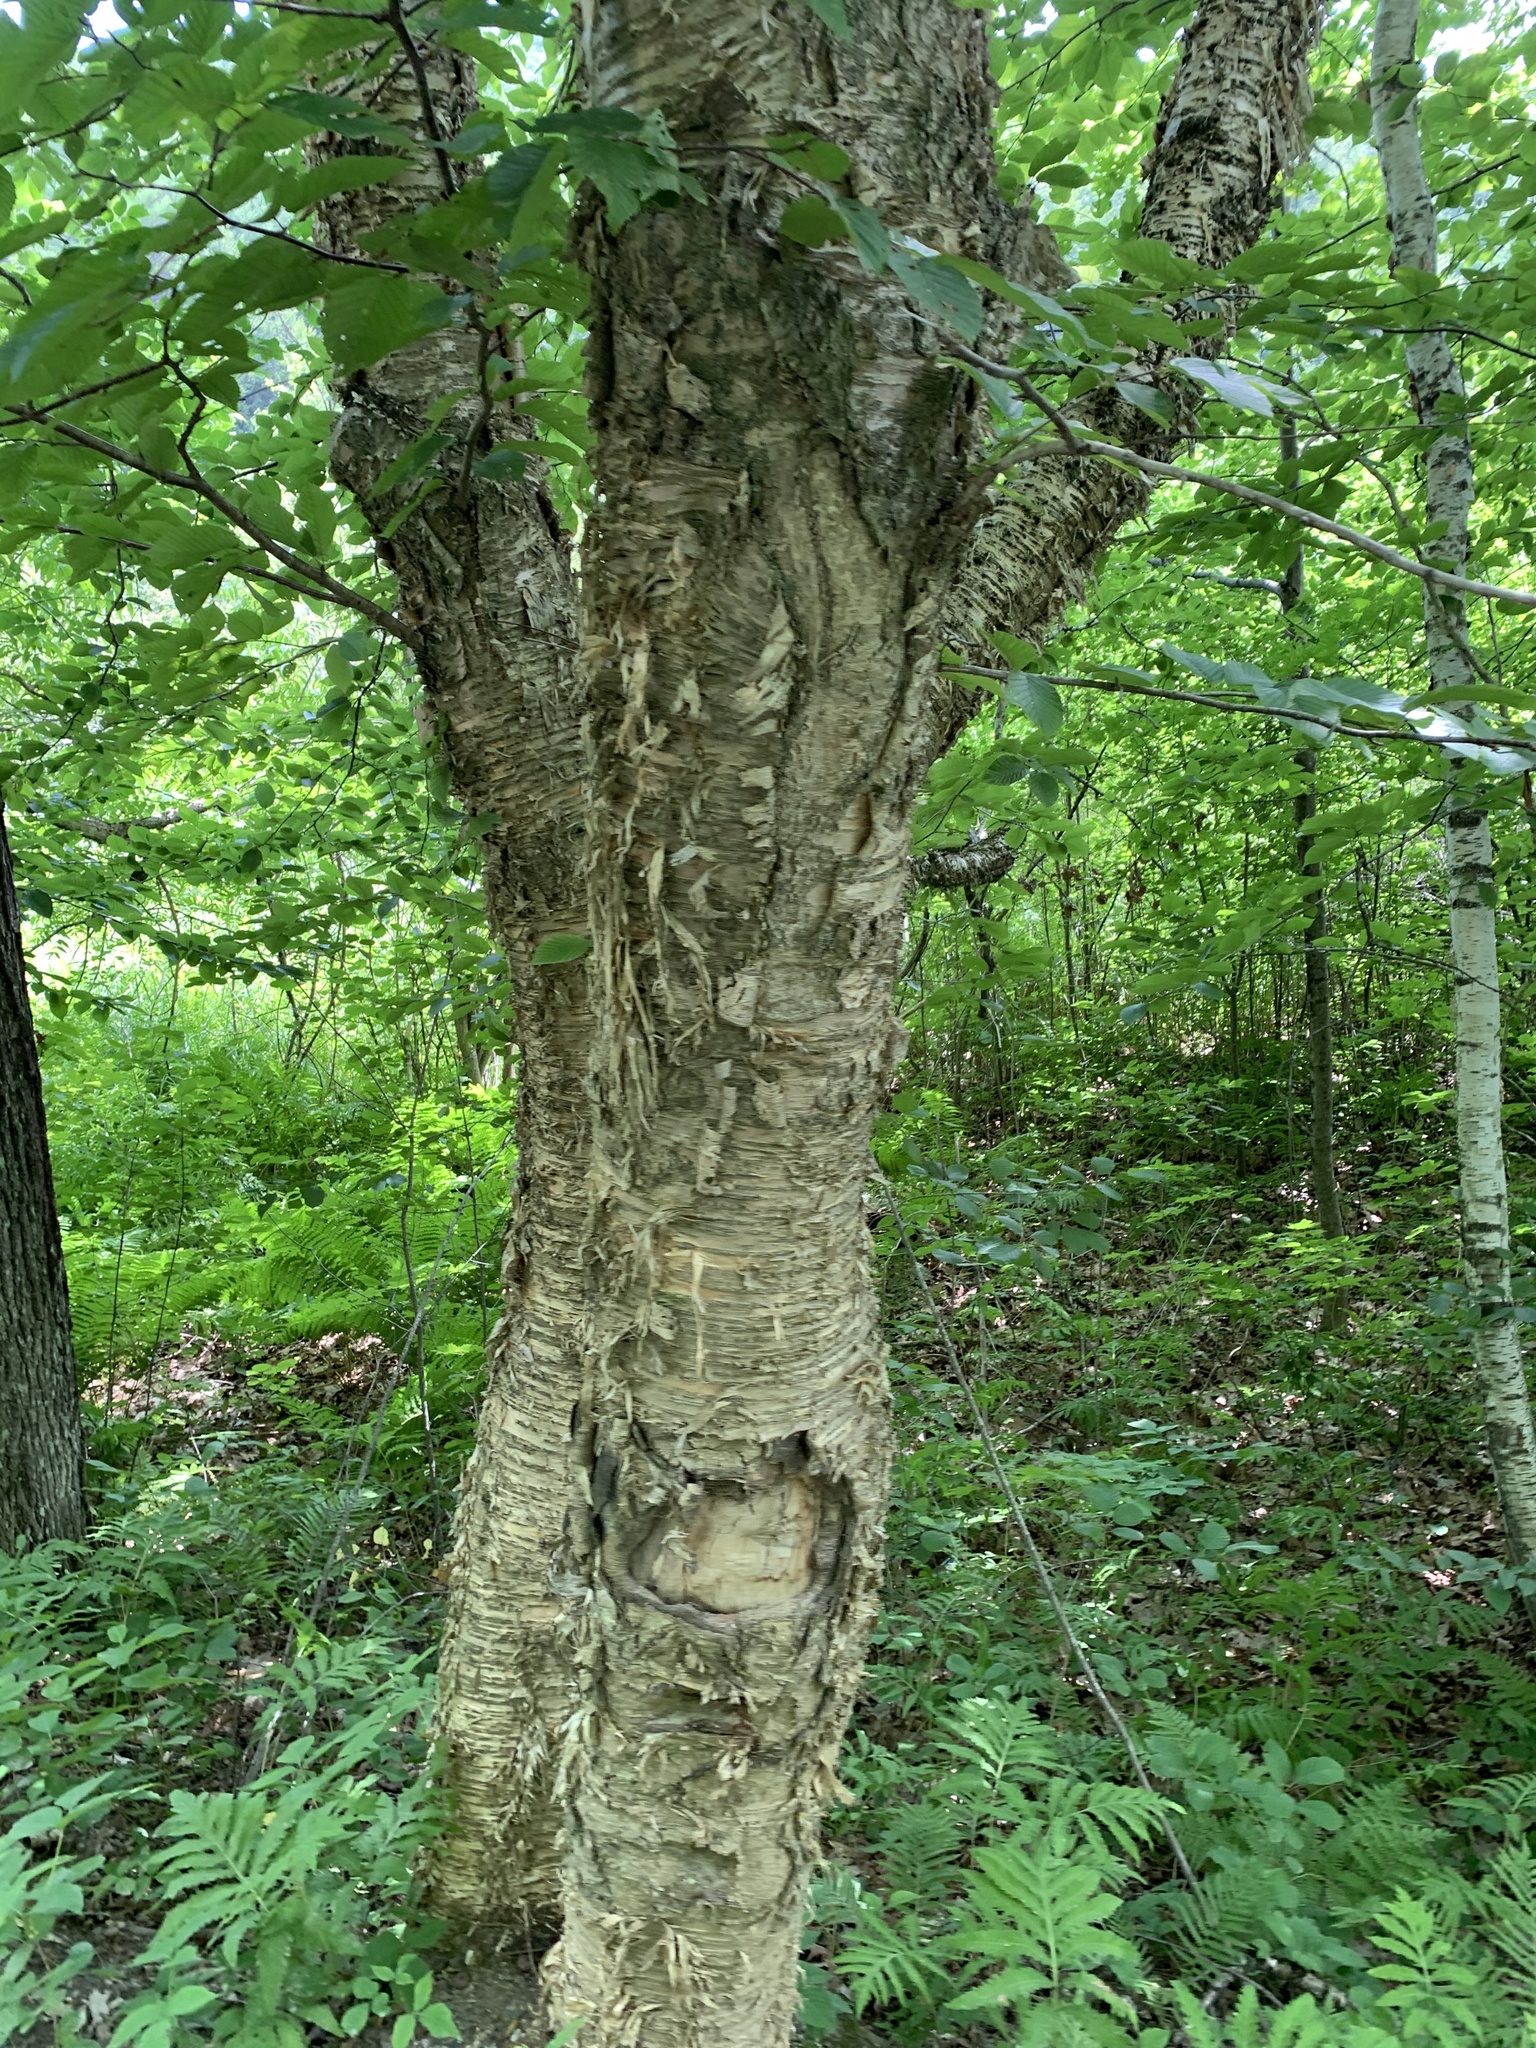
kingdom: Plantae
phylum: Tracheophyta
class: Magnoliopsida
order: Fagales
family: Betulaceae
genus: Betula
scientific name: Betula alleghaniensis
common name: Yellow birch
